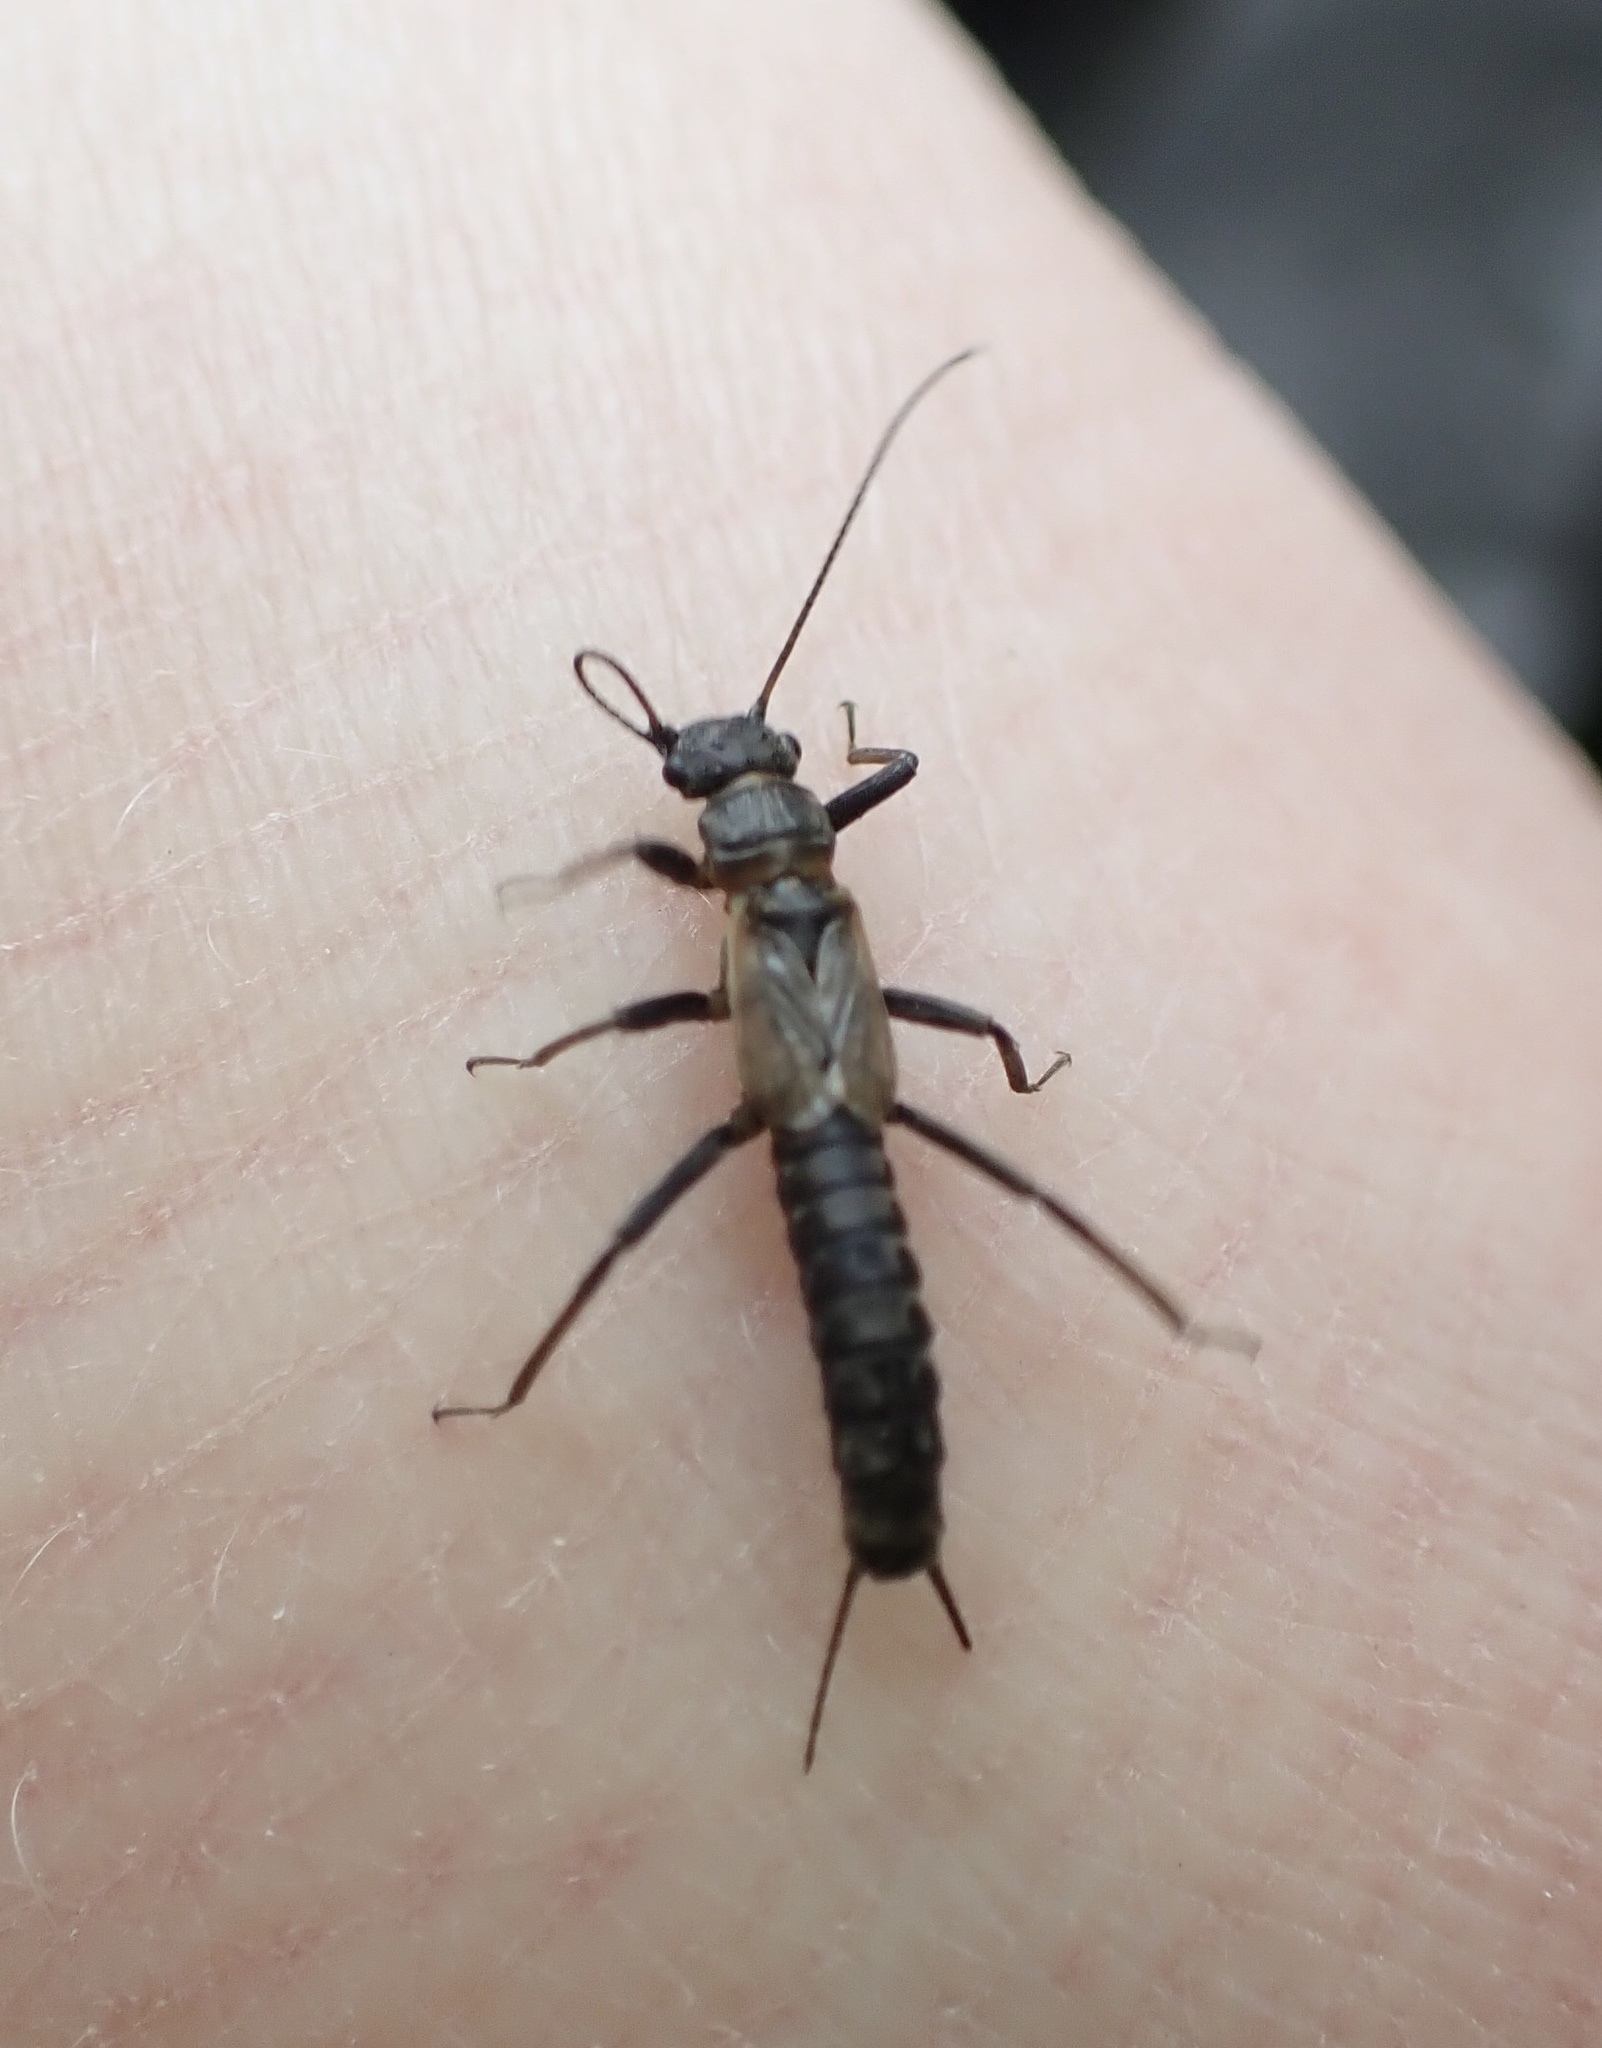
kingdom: Animalia
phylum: Arthropoda
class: Insecta
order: Plecoptera
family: Perlodidae
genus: Isoperla
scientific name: Isoperla difformis
